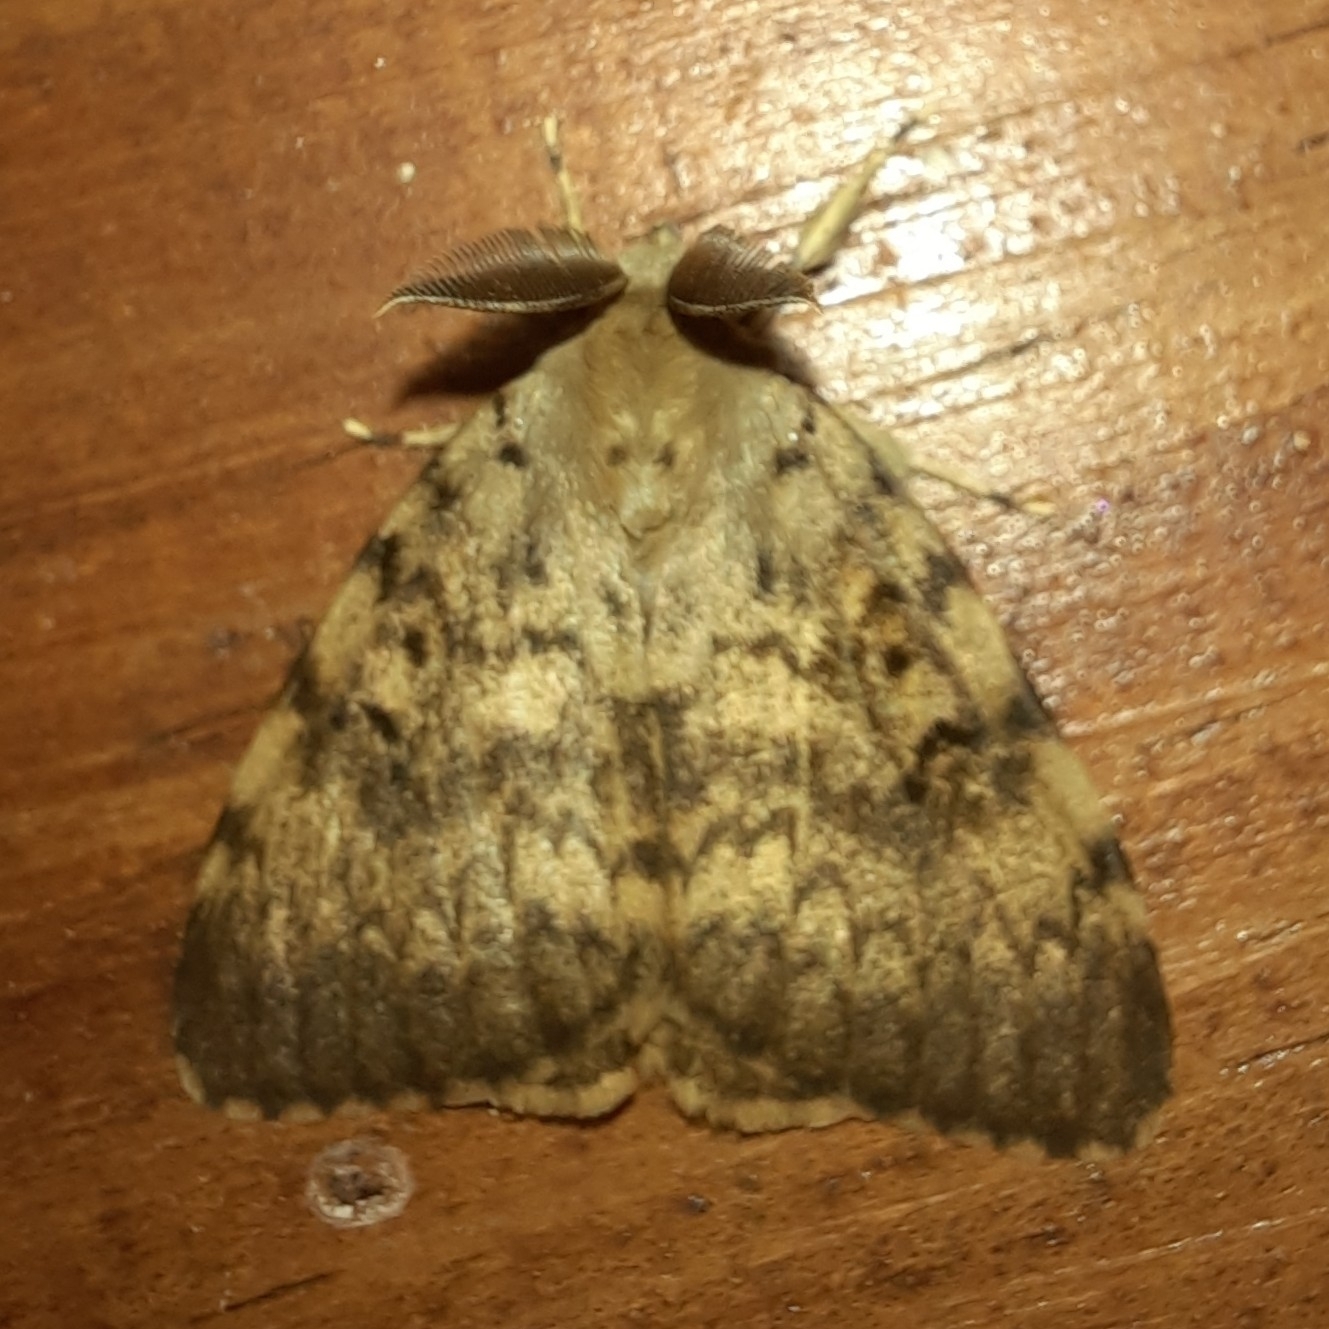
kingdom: Animalia
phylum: Arthropoda
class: Insecta
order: Lepidoptera
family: Erebidae
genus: Lymantria
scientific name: Lymantria dispar
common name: Gypsy moth
